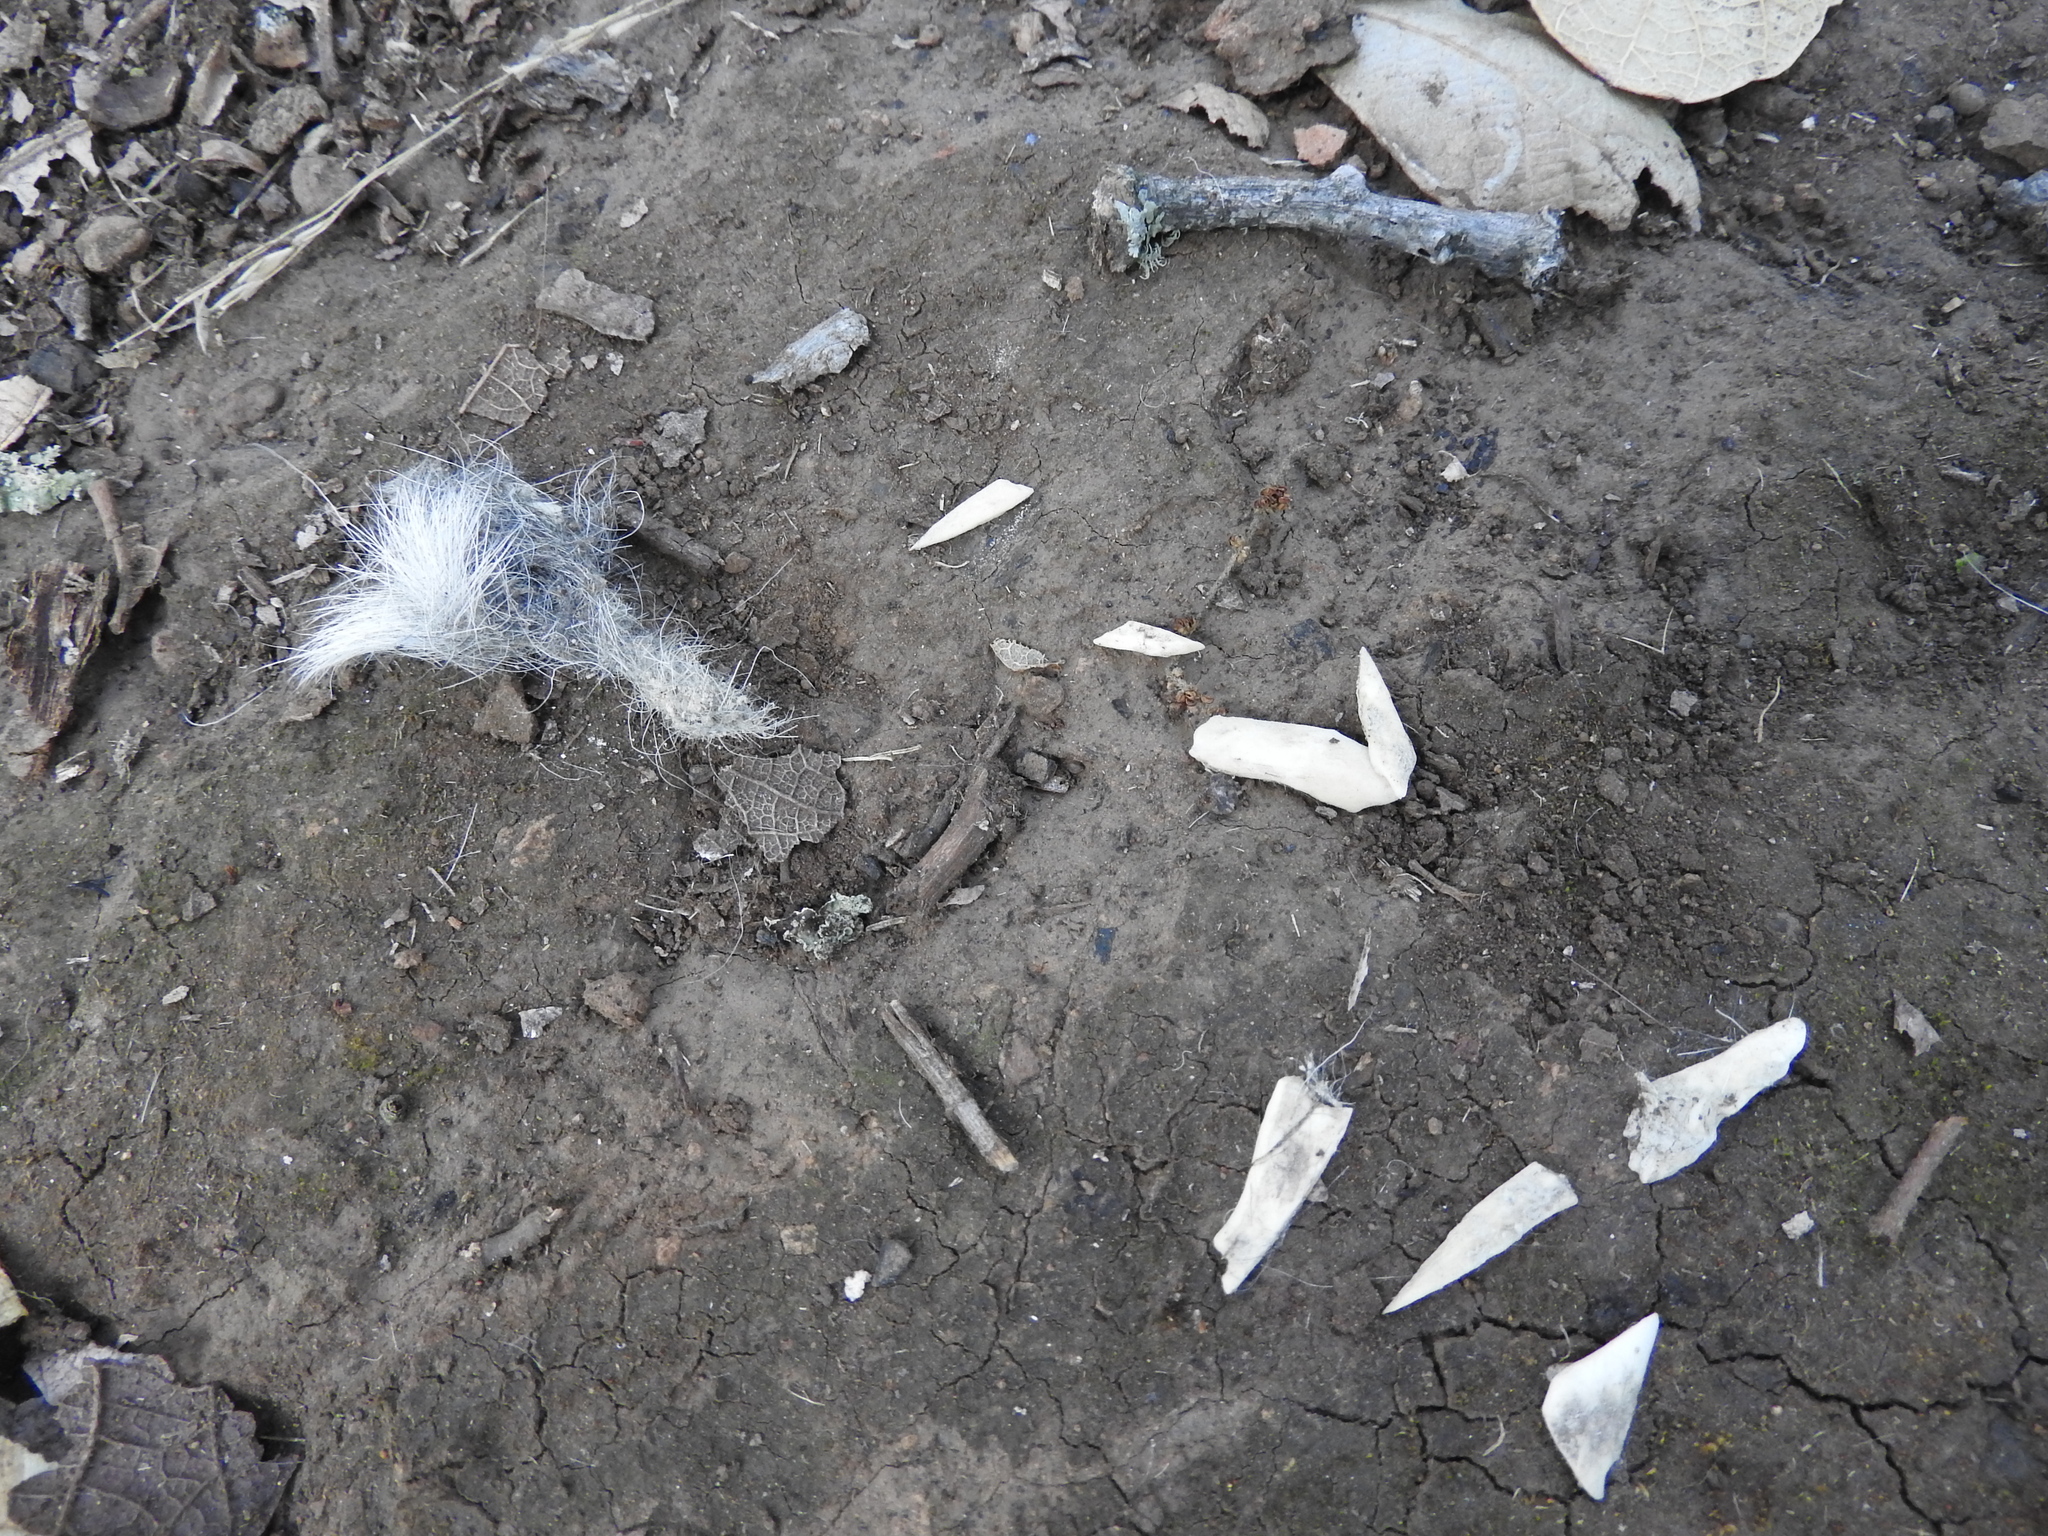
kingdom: Animalia
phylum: Chordata
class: Mammalia
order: Carnivora
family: Canidae
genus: Canis
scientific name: Canis latrans
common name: Coyote
